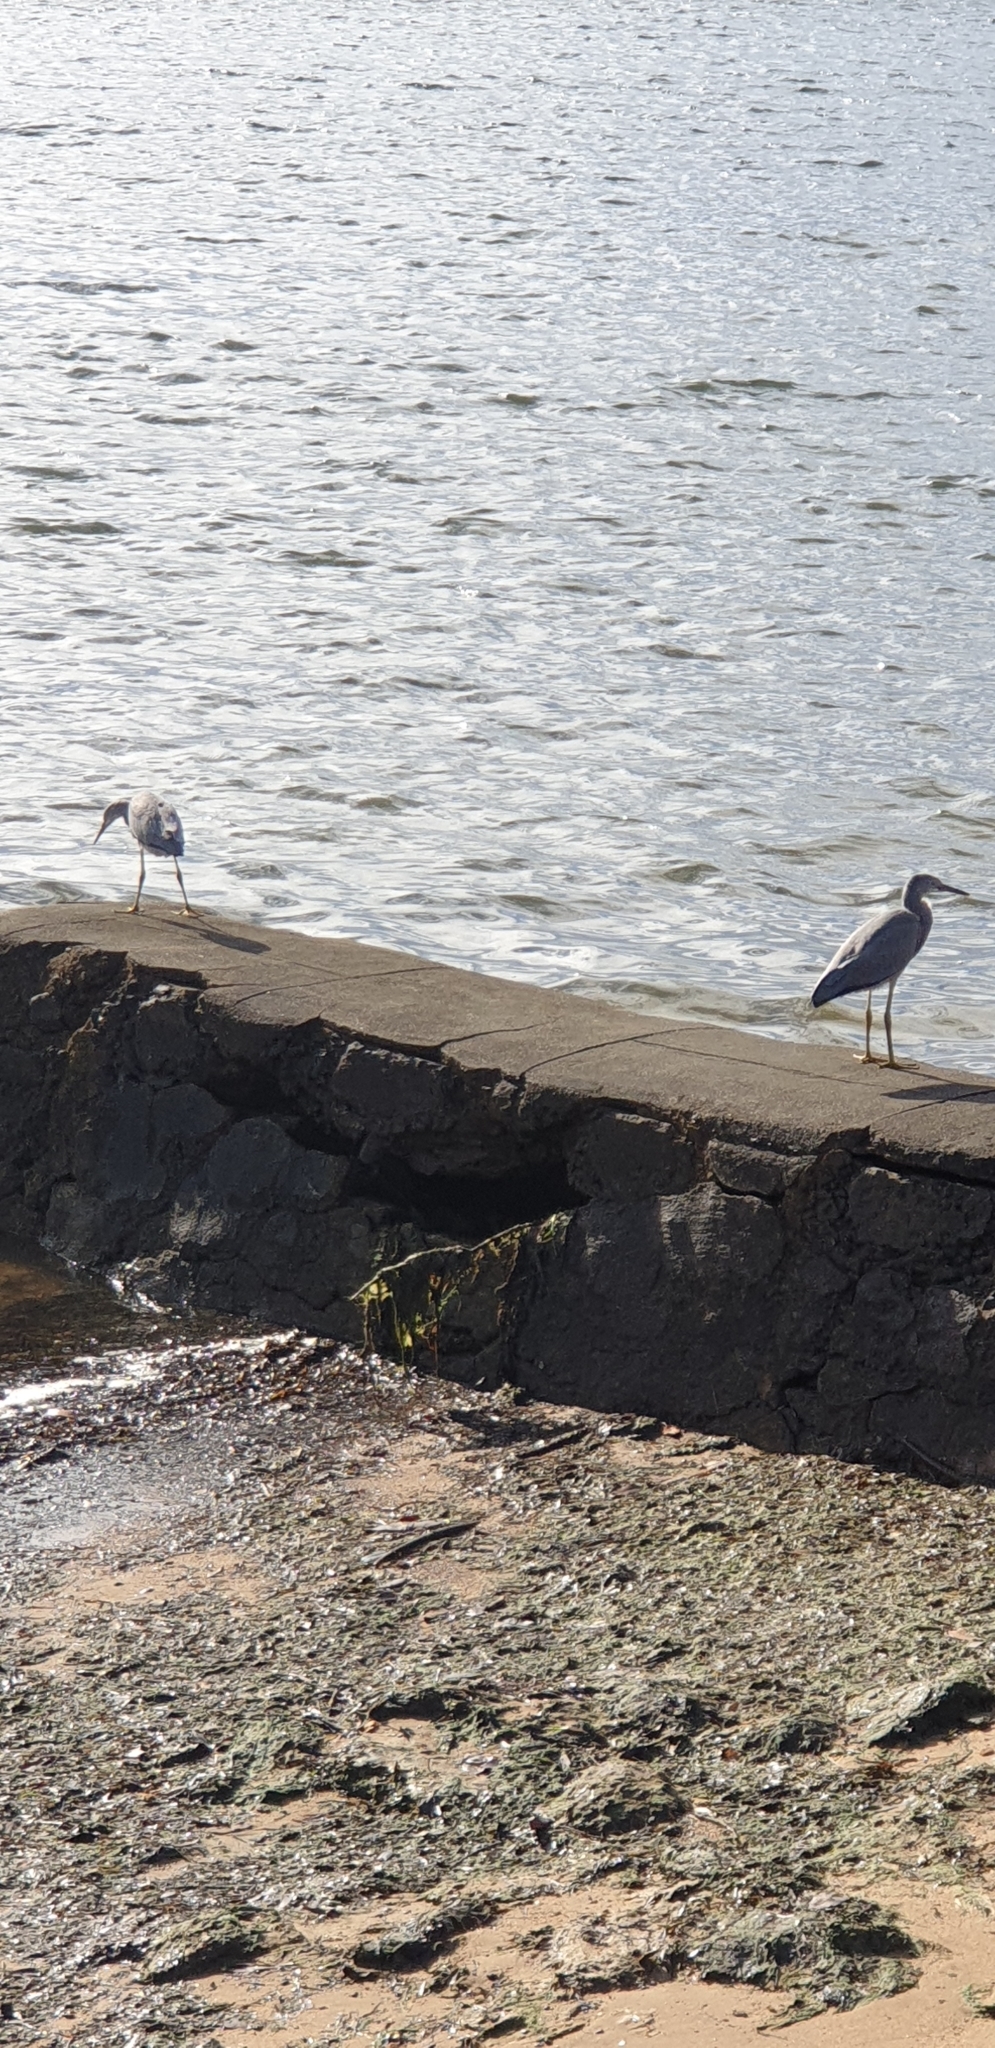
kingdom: Animalia
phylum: Chordata
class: Aves
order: Pelecaniformes
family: Ardeidae
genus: Egretta
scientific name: Egretta novaehollandiae
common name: White-faced heron
